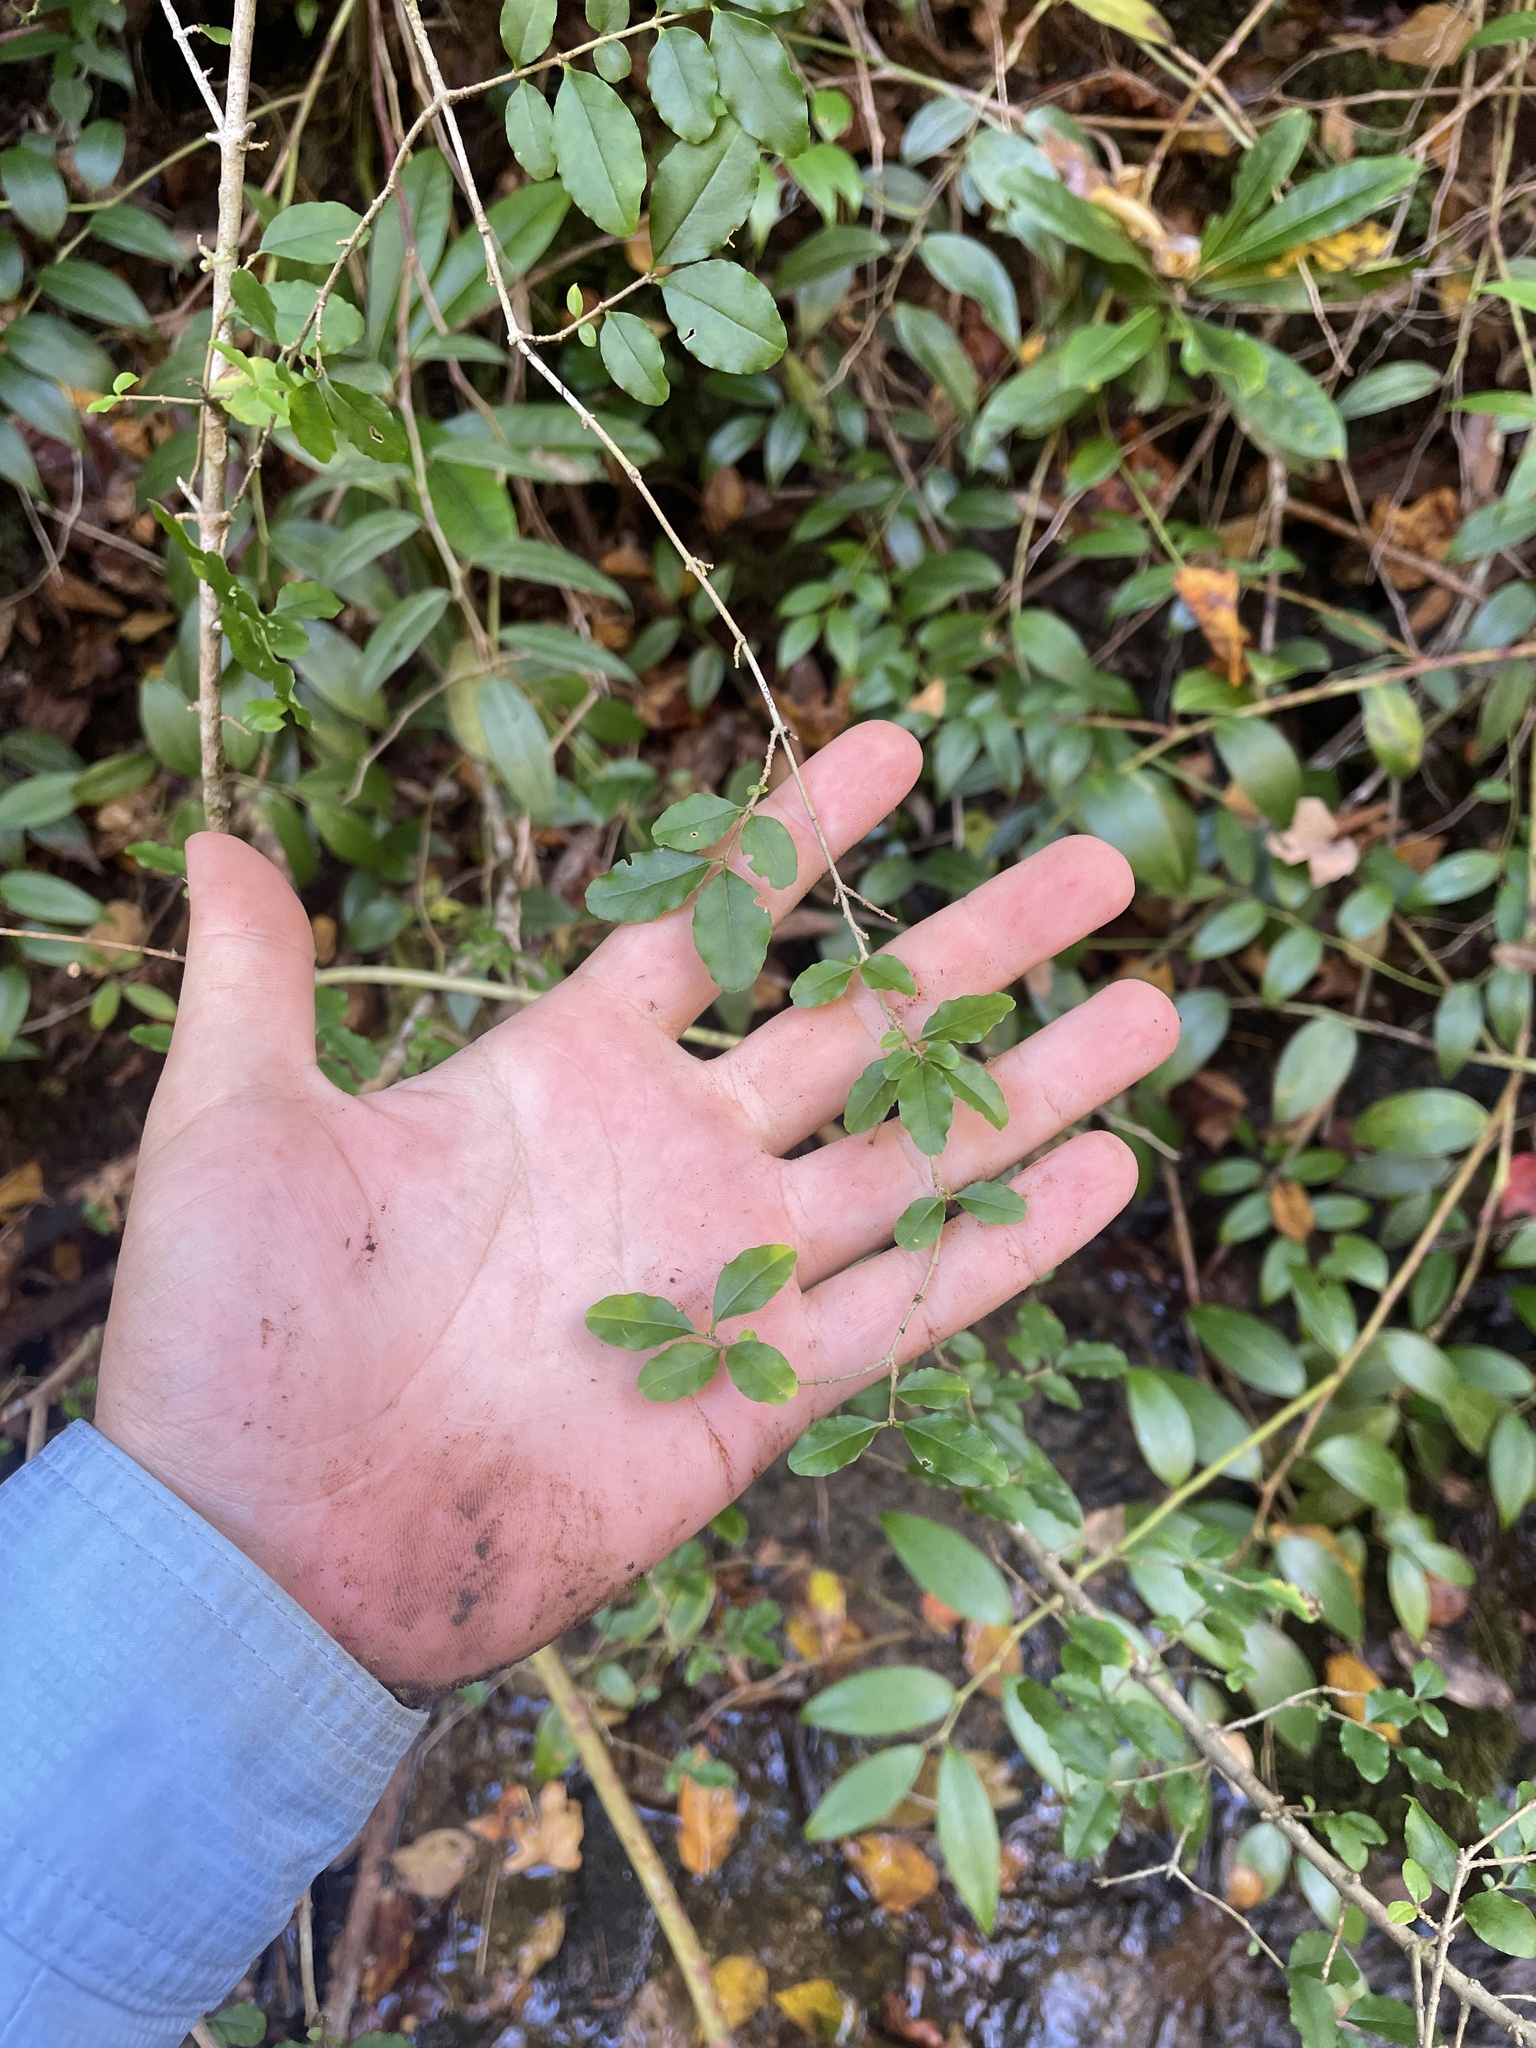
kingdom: Plantae
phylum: Tracheophyta
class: Magnoliopsida
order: Lamiales
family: Oleaceae
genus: Ligustrum
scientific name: Ligustrum sinense
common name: Chinese privet
